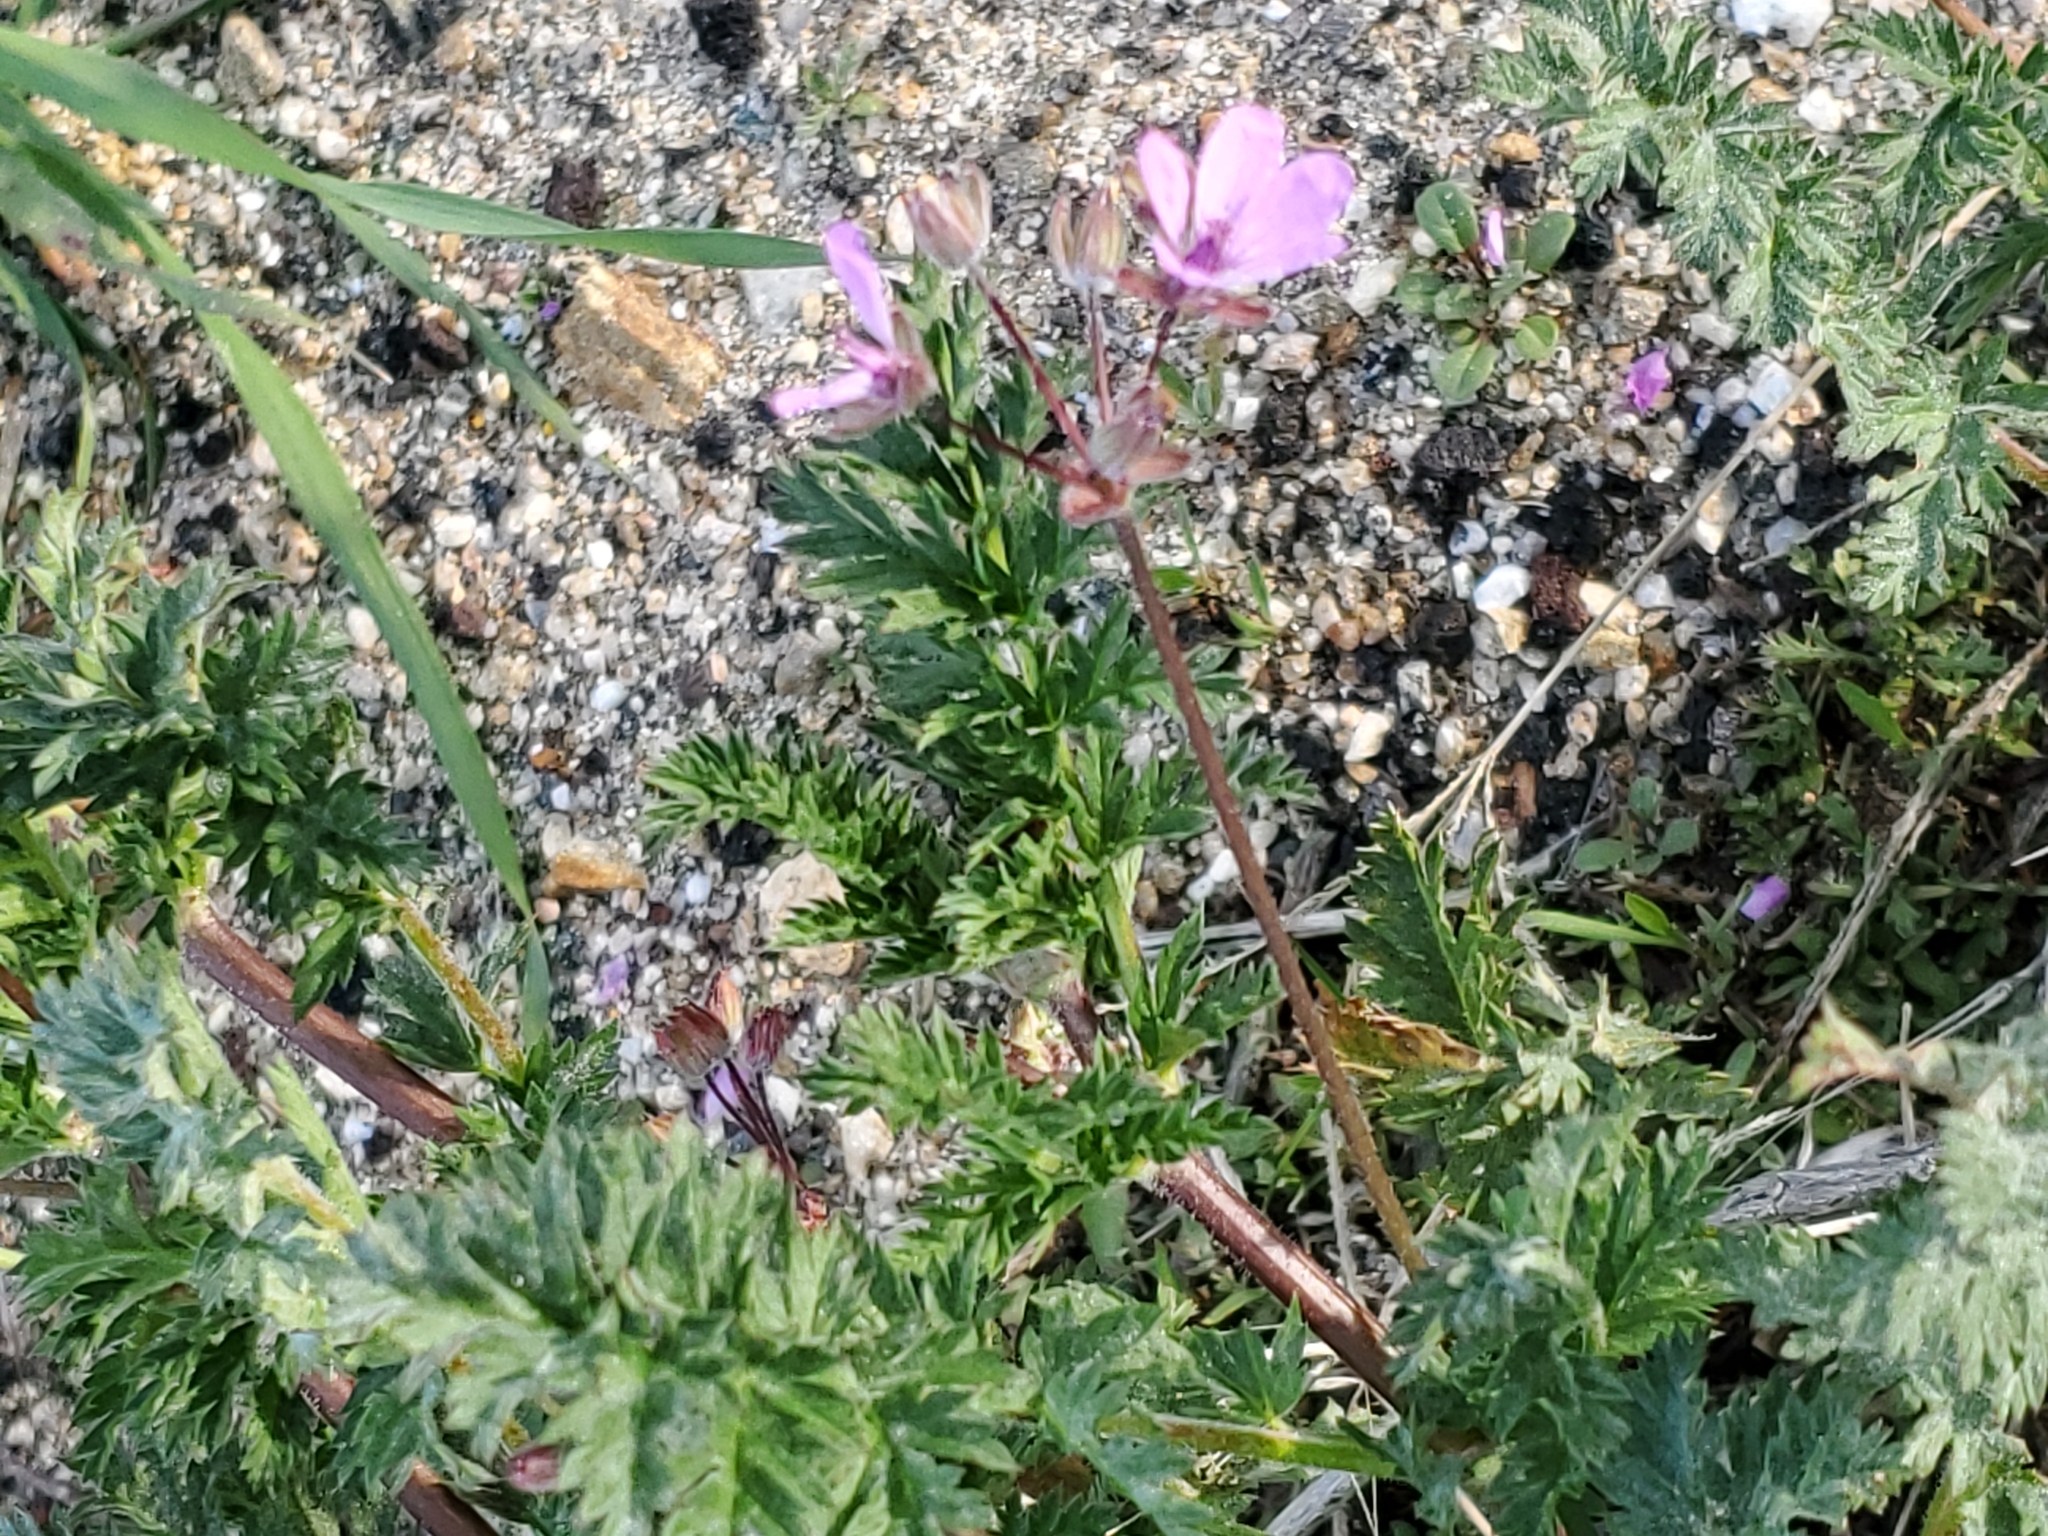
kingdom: Plantae
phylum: Tracheophyta
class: Magnoliopsida
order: Geraniales
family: Geraniaceae
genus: Erodium
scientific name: Erodium cicutarium
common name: Common stork's-bill
